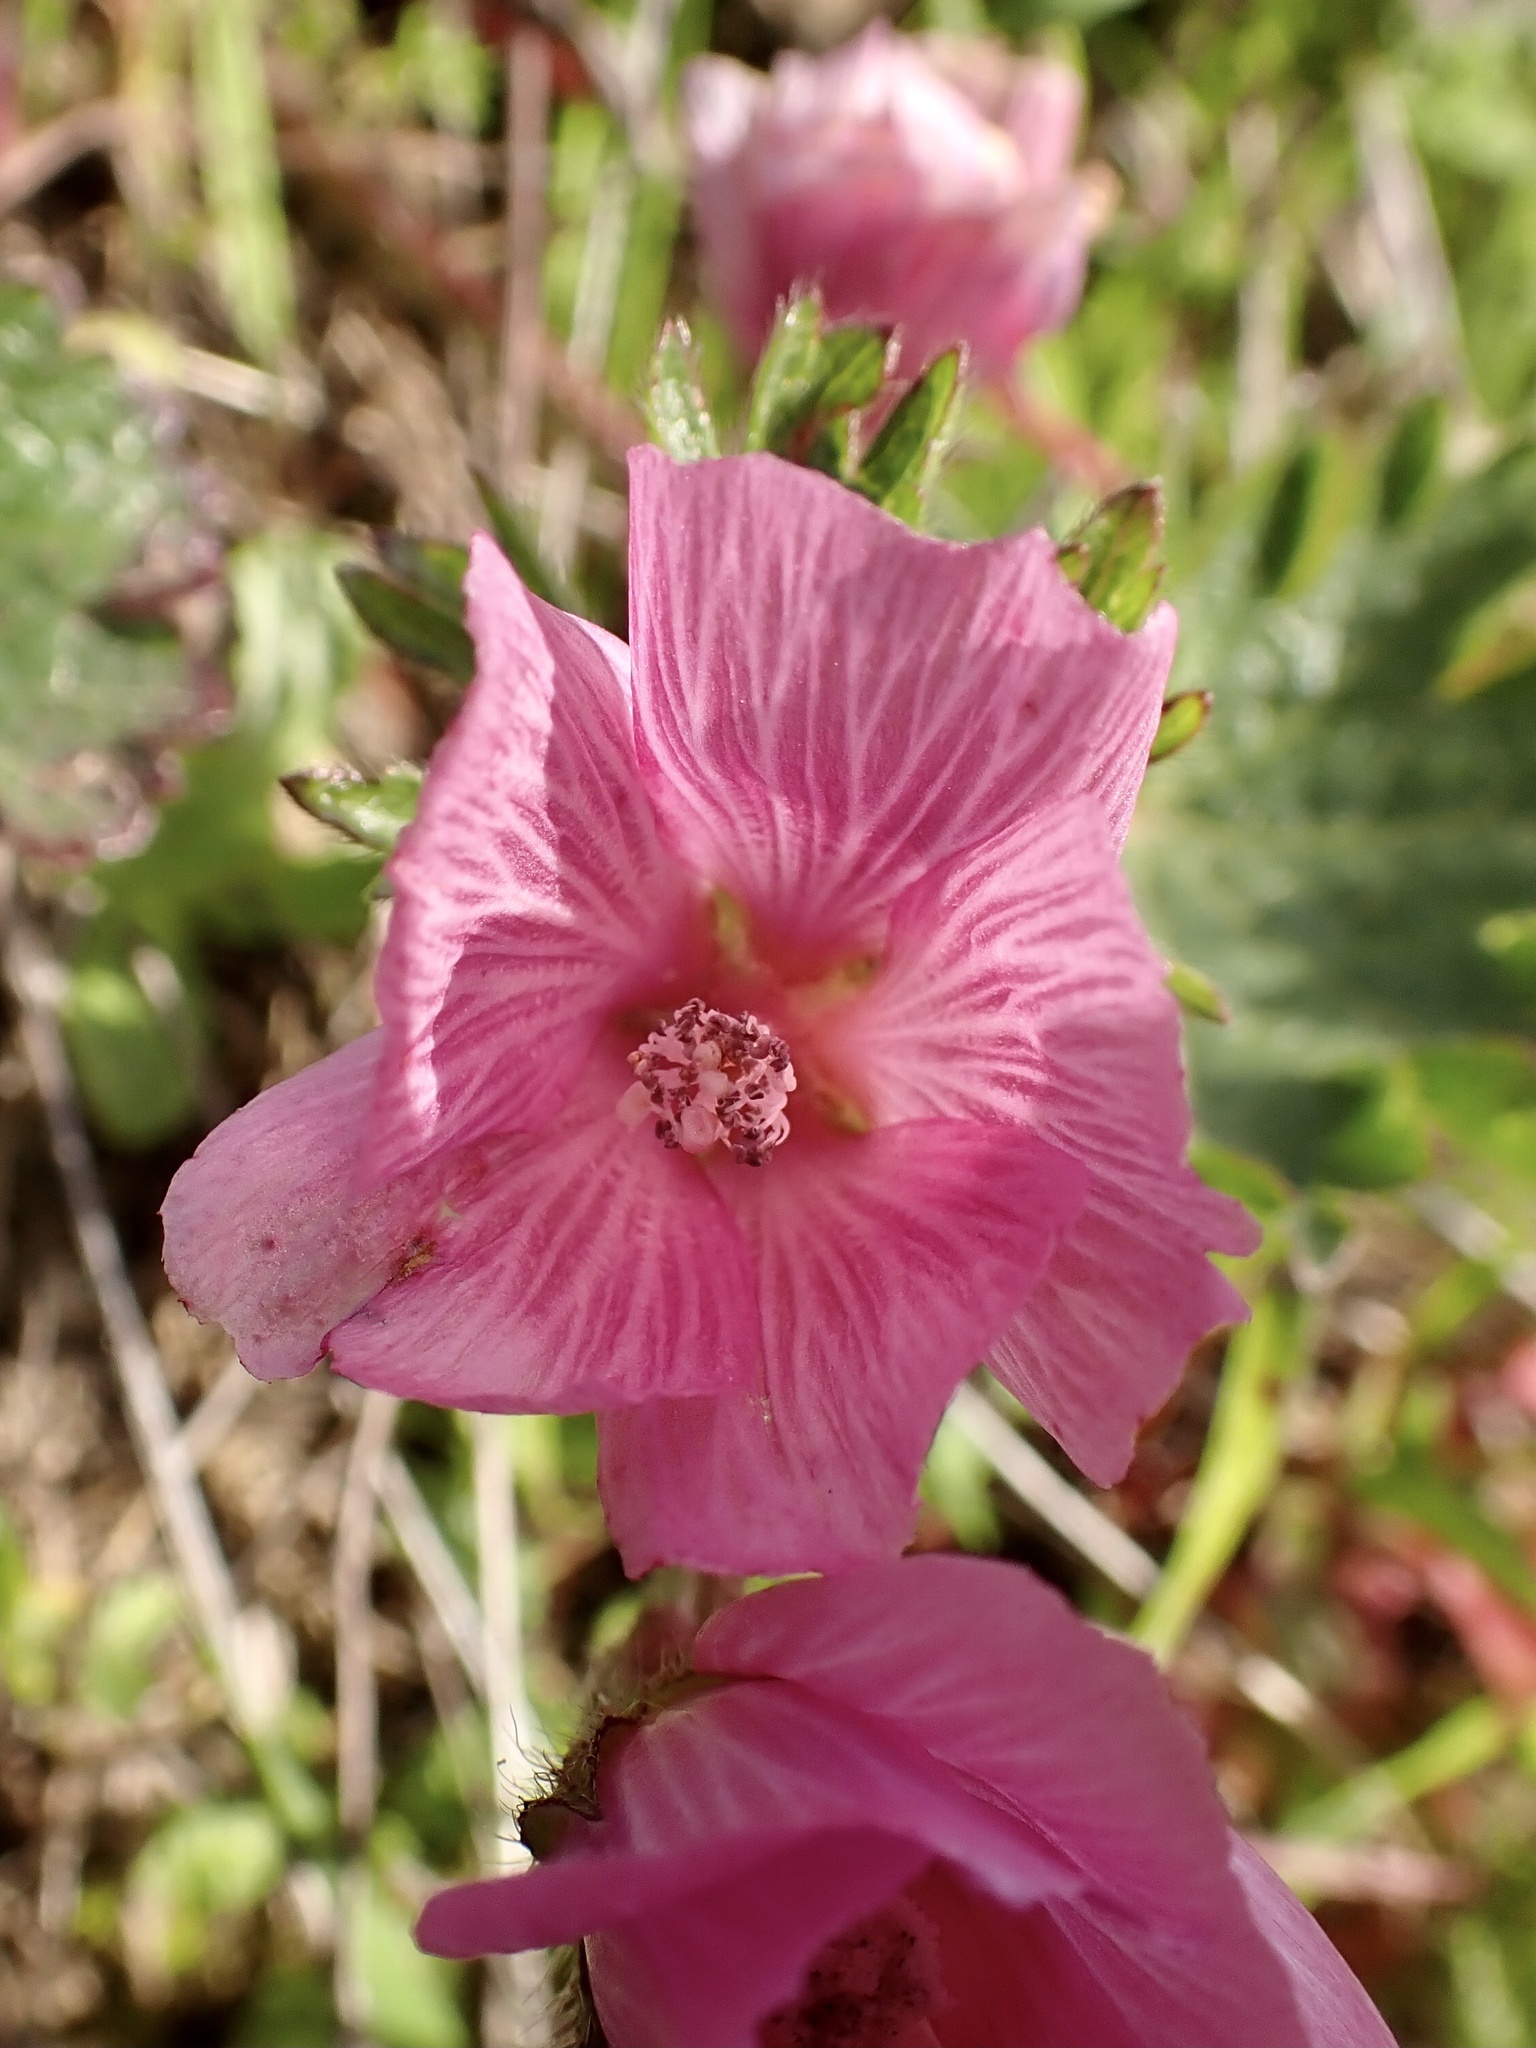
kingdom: Plantae
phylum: Tracheophyta
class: Magnoliopsida
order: Malvales
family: Malvaceae
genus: Sidalcea
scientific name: Sidalcea malviflora
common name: Greek mallow
